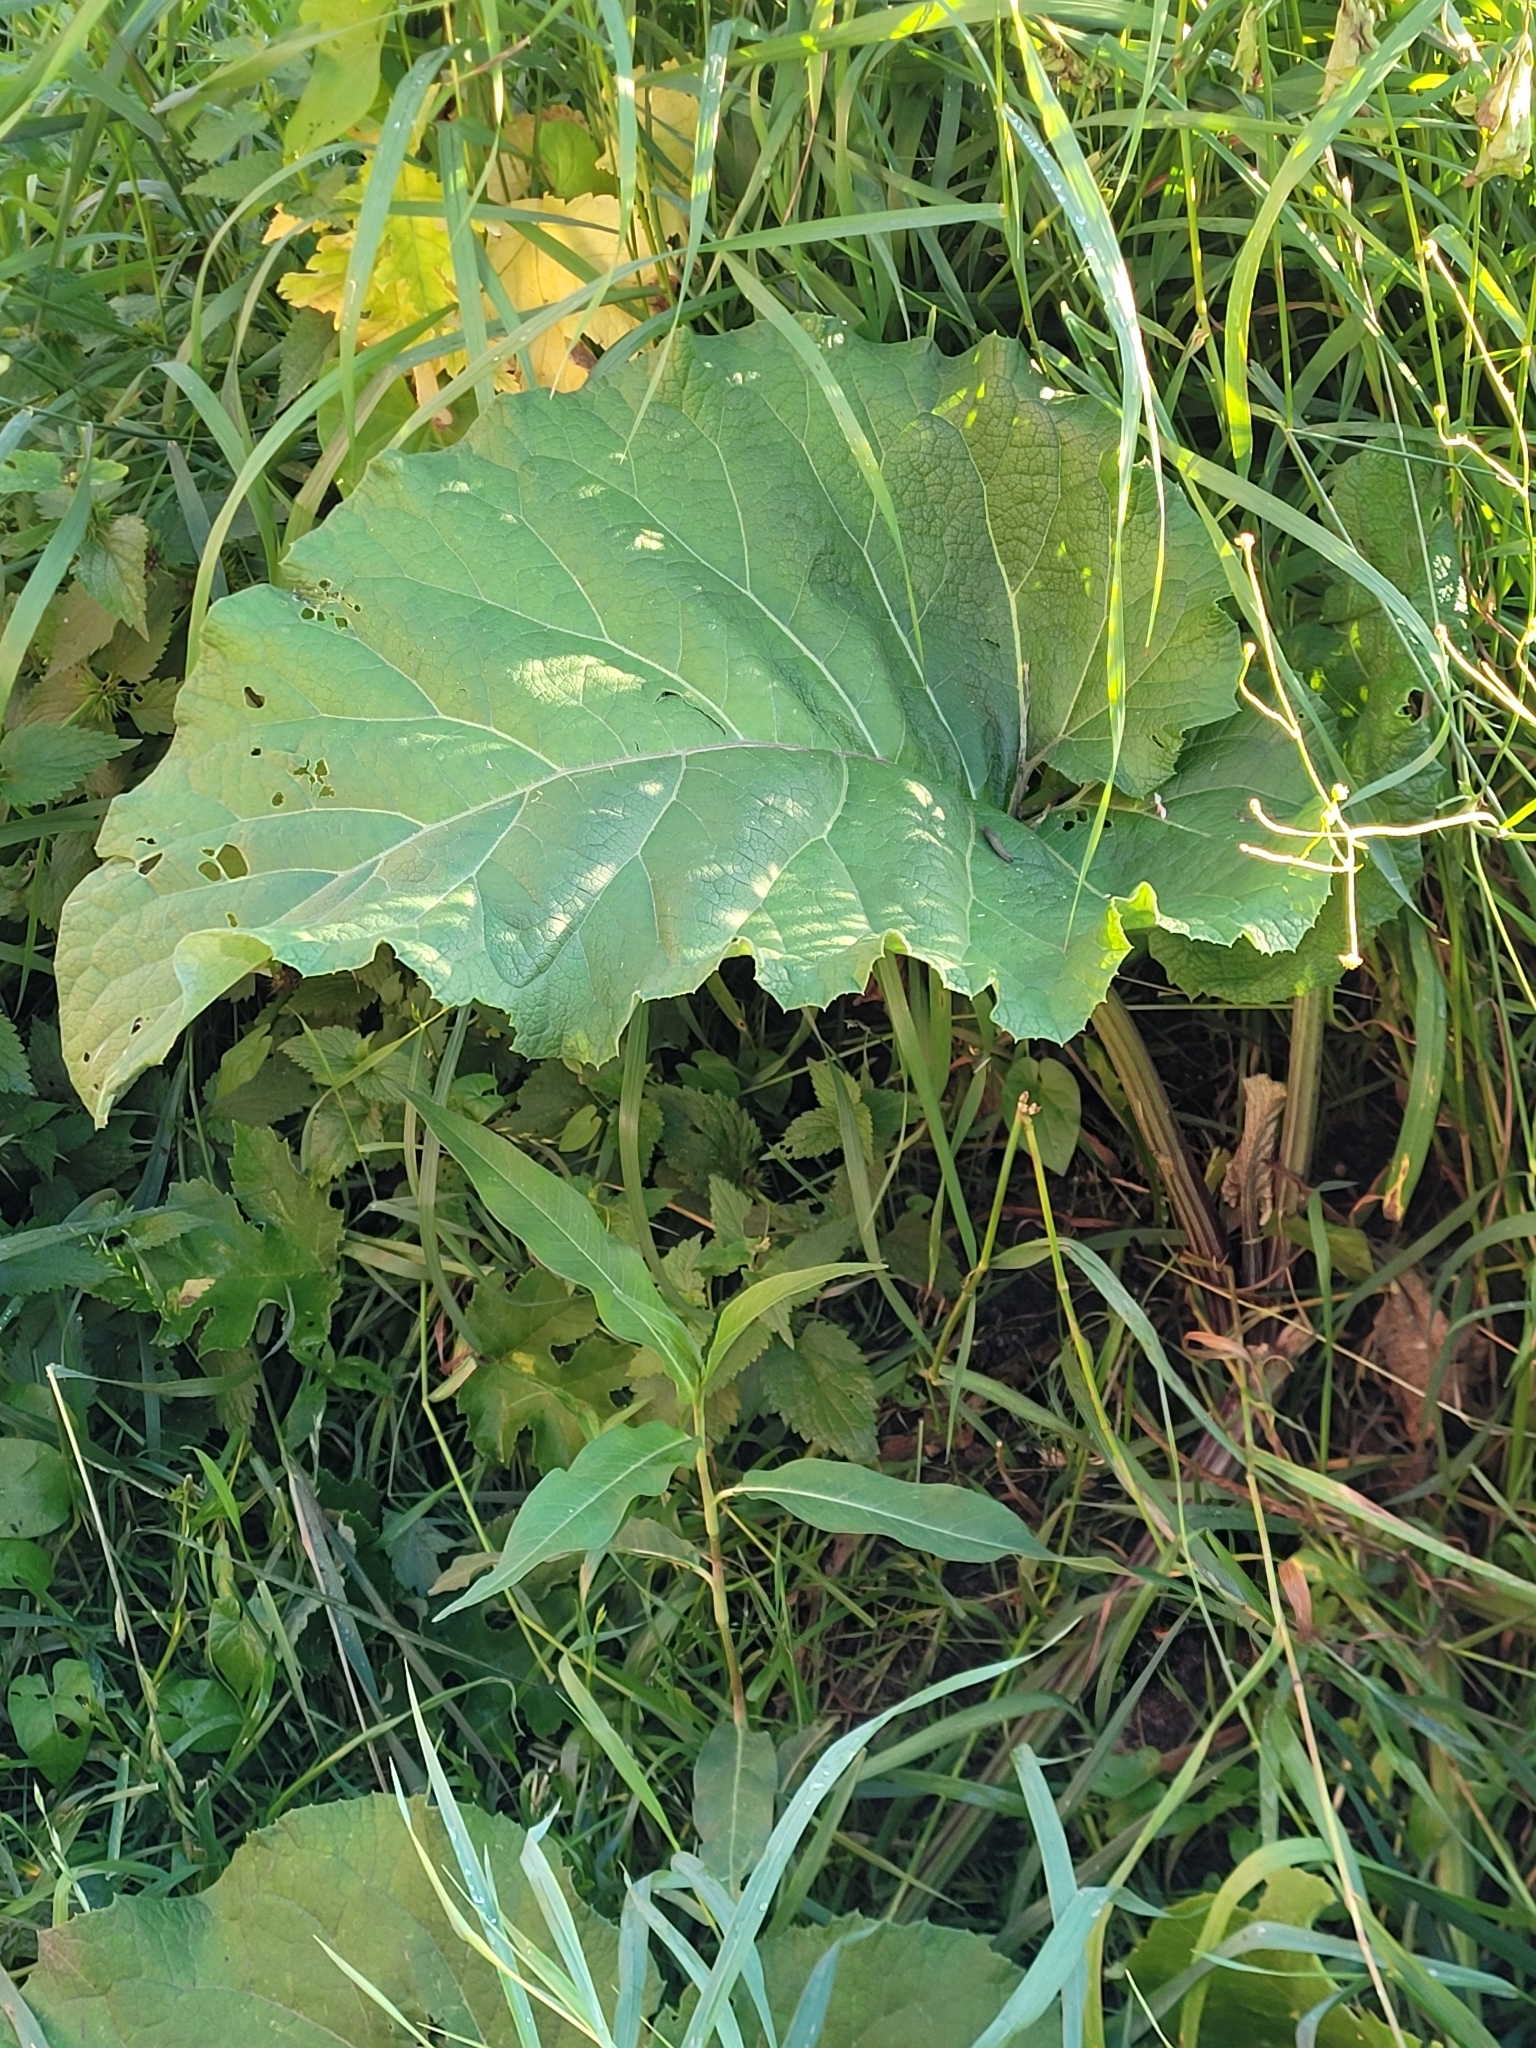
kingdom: Plantae
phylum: Tracheophyta
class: Magnoliopsida
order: Asterales
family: Asteraceae
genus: Arctium
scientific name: Arctium
